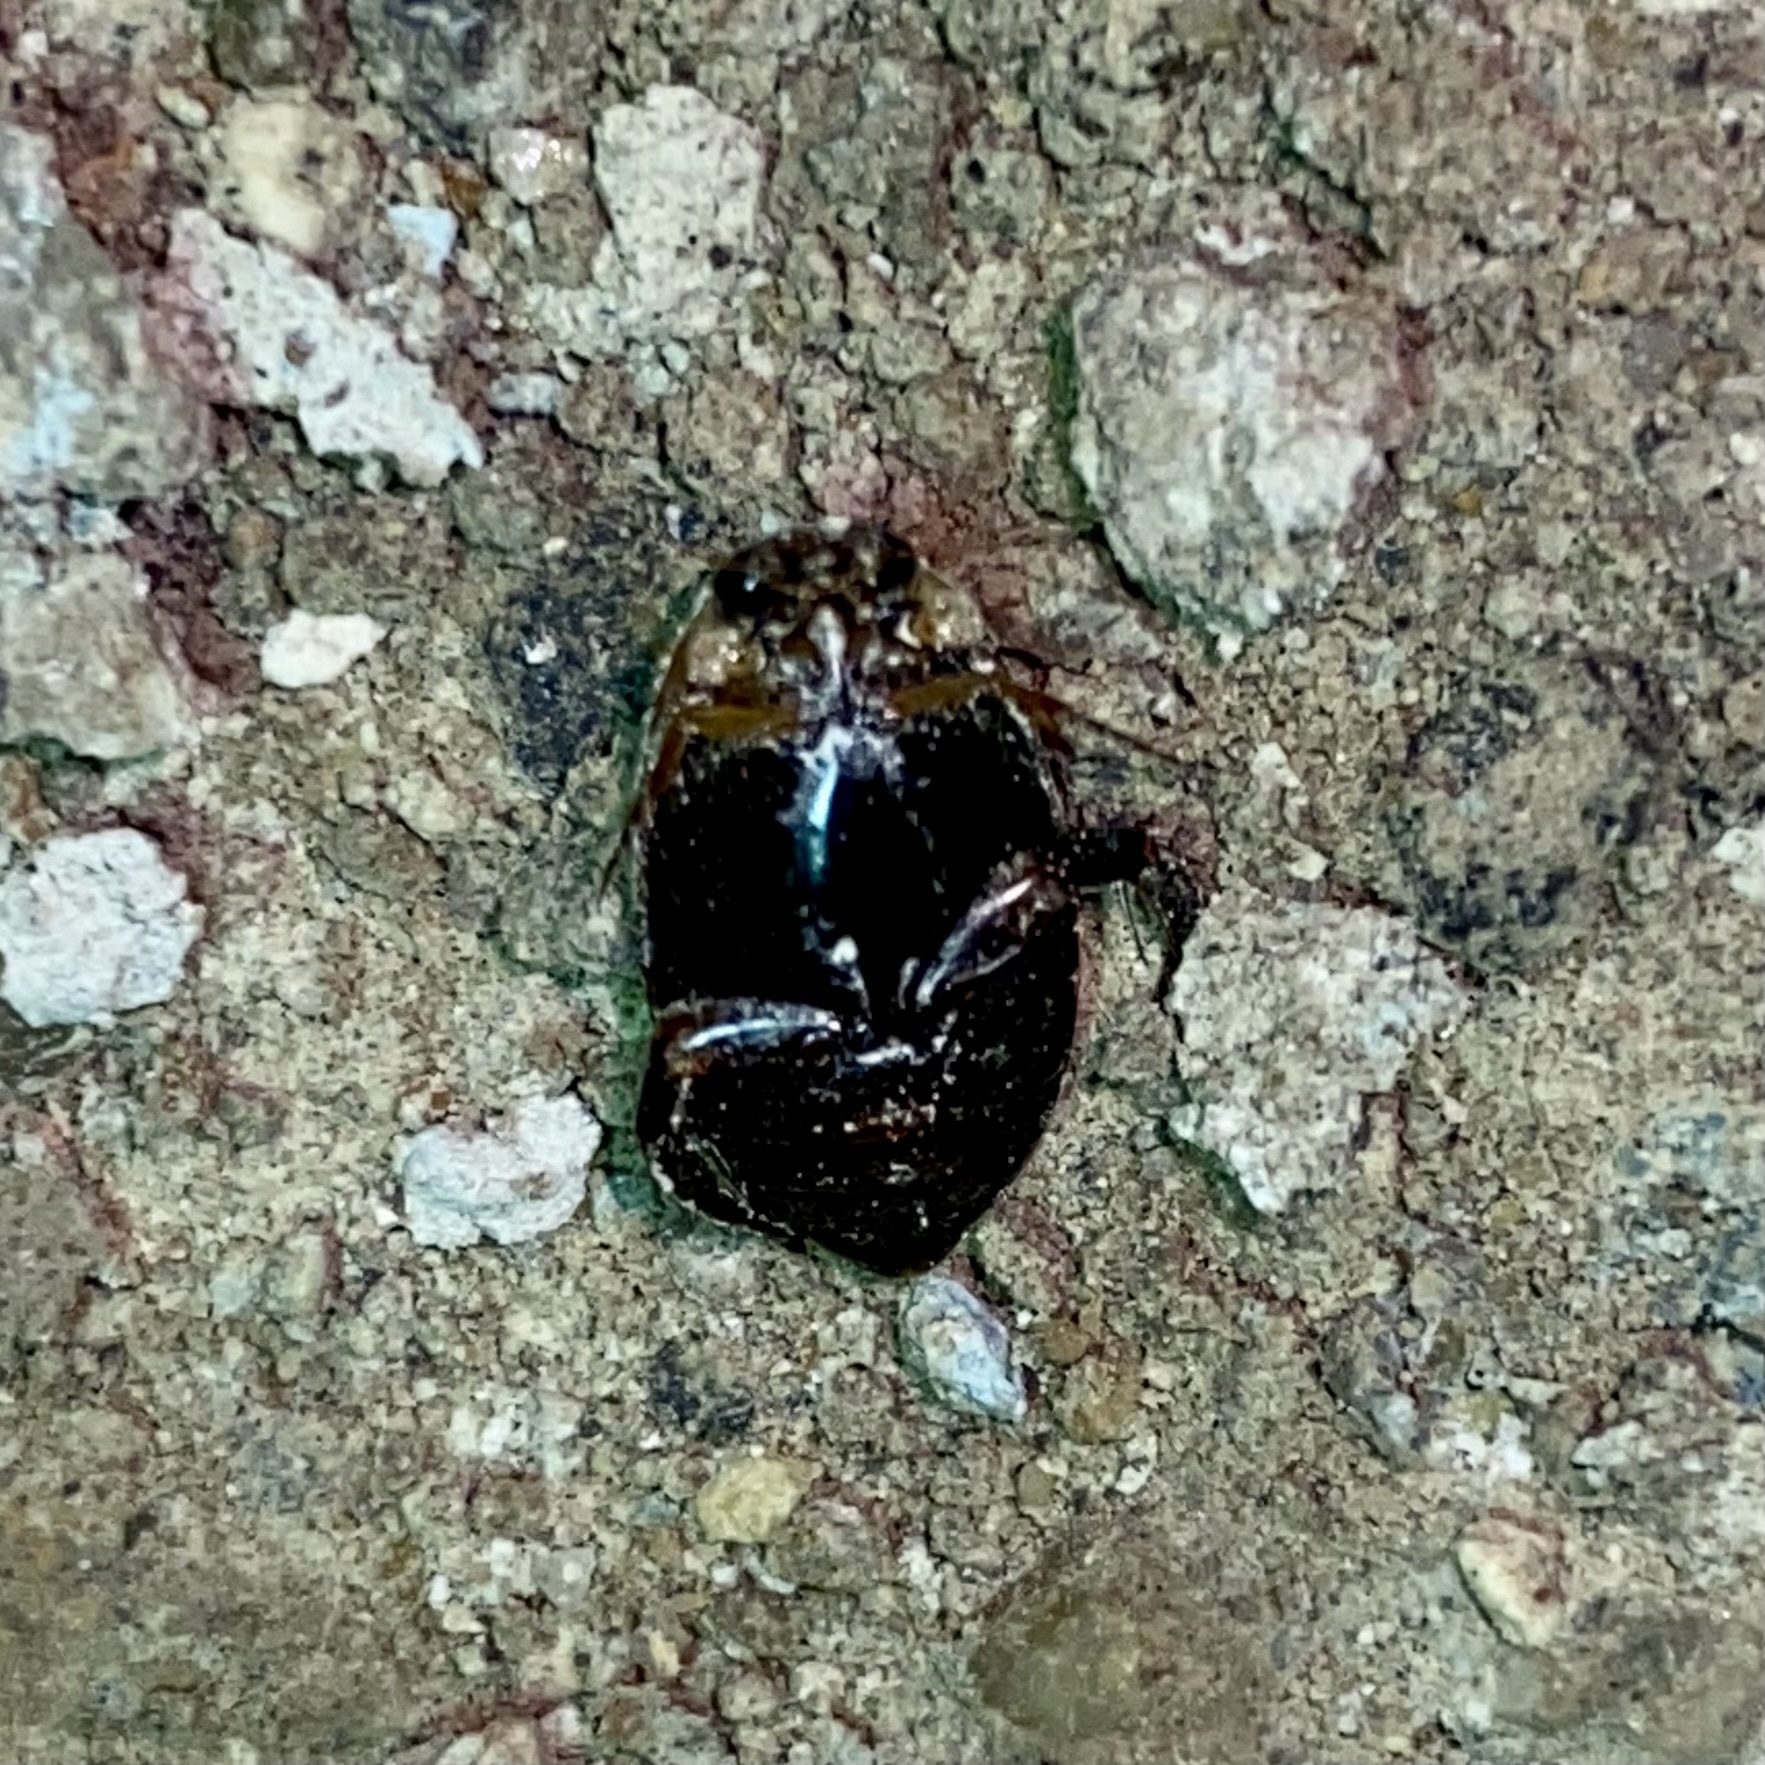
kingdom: Animalia
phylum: Arthropoda
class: Insecta
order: Coleoptera
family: Dytiscidae
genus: Thermonectus
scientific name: Thermonectus basillaris
